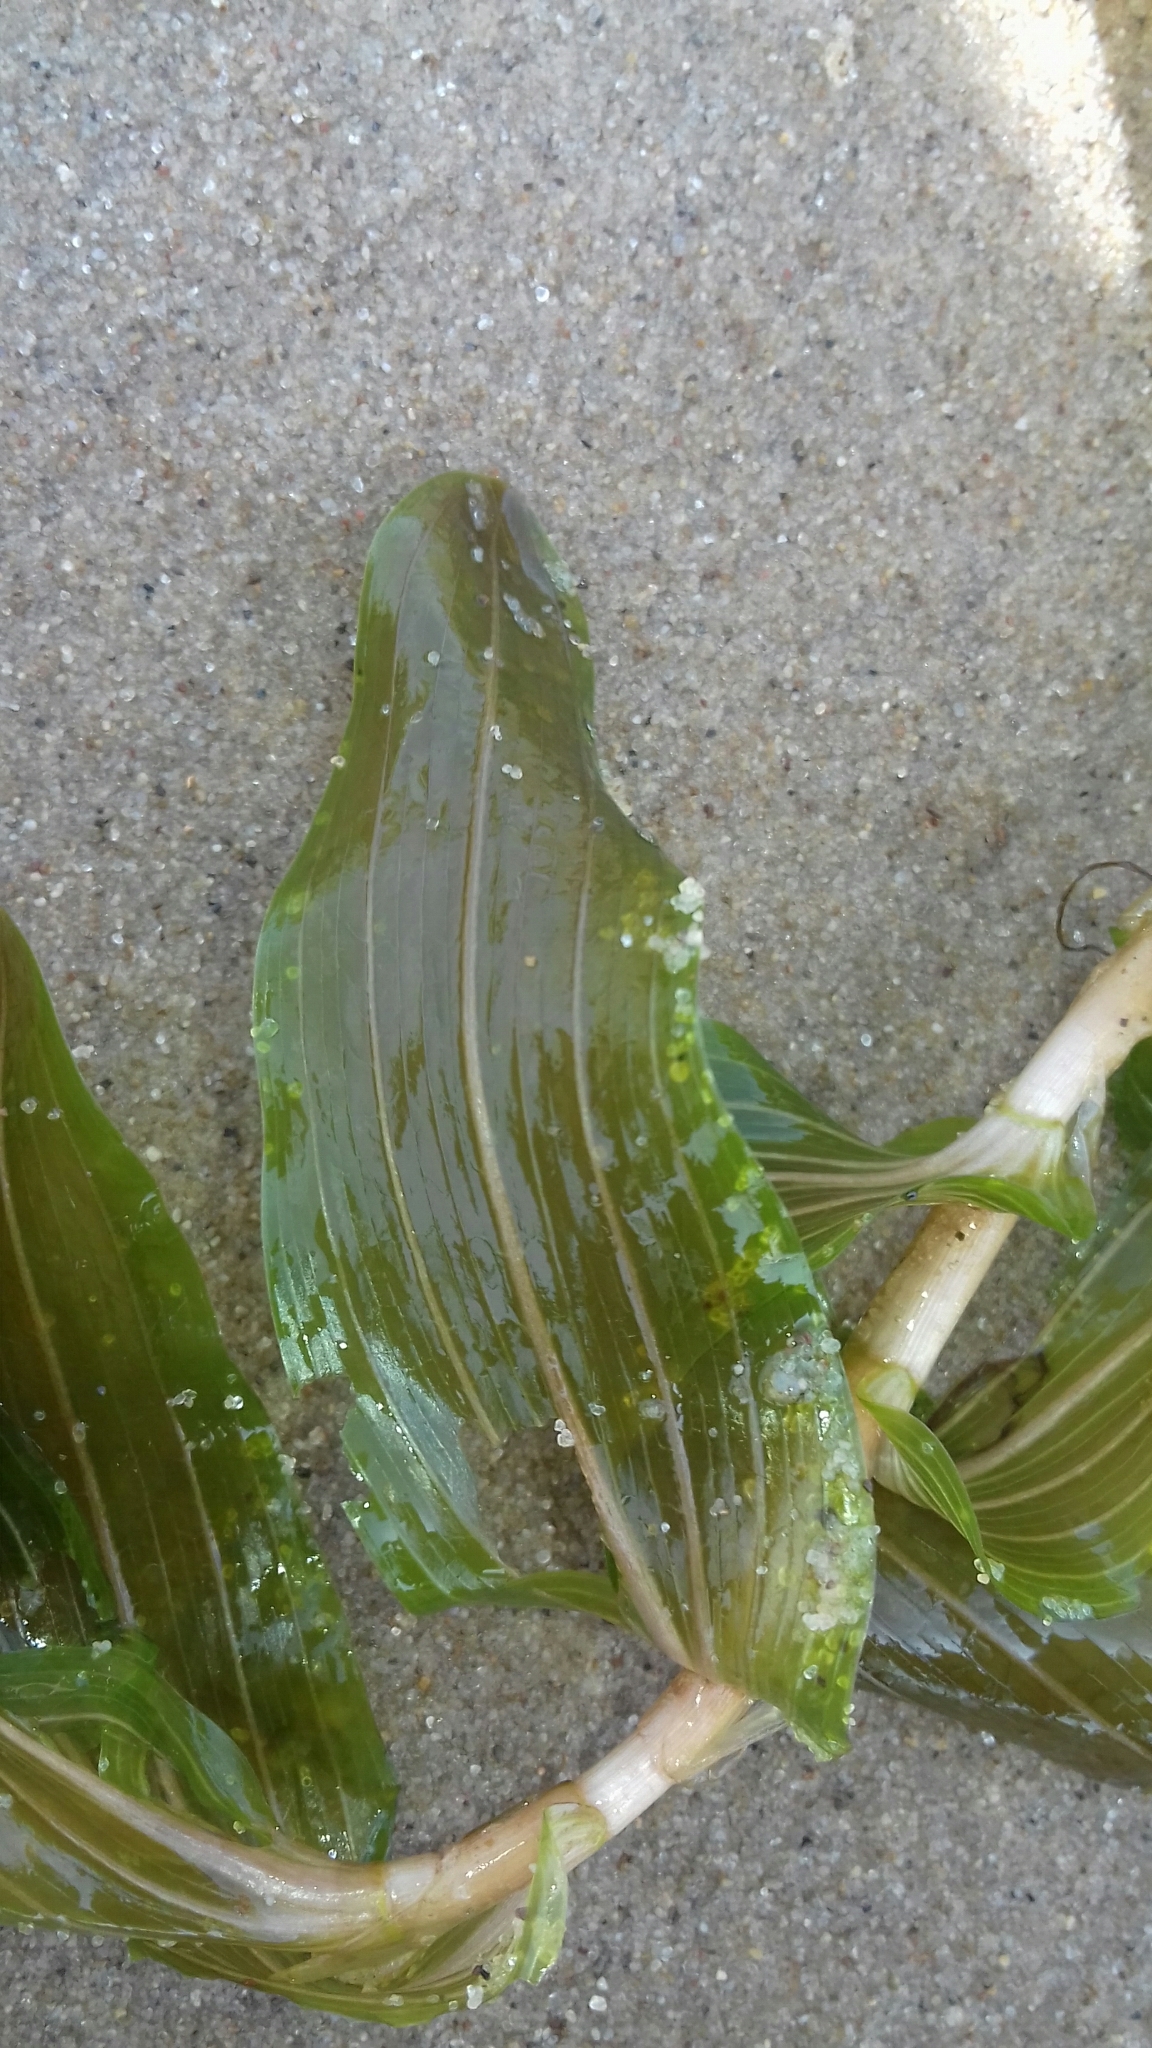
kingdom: Plantae
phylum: Tracheophyta
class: Liliopsida
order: Alismatales
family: Potamogetonaceae
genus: Potamogeton
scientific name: Potamogeton perfoliatus
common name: Perfoliate pondweed
